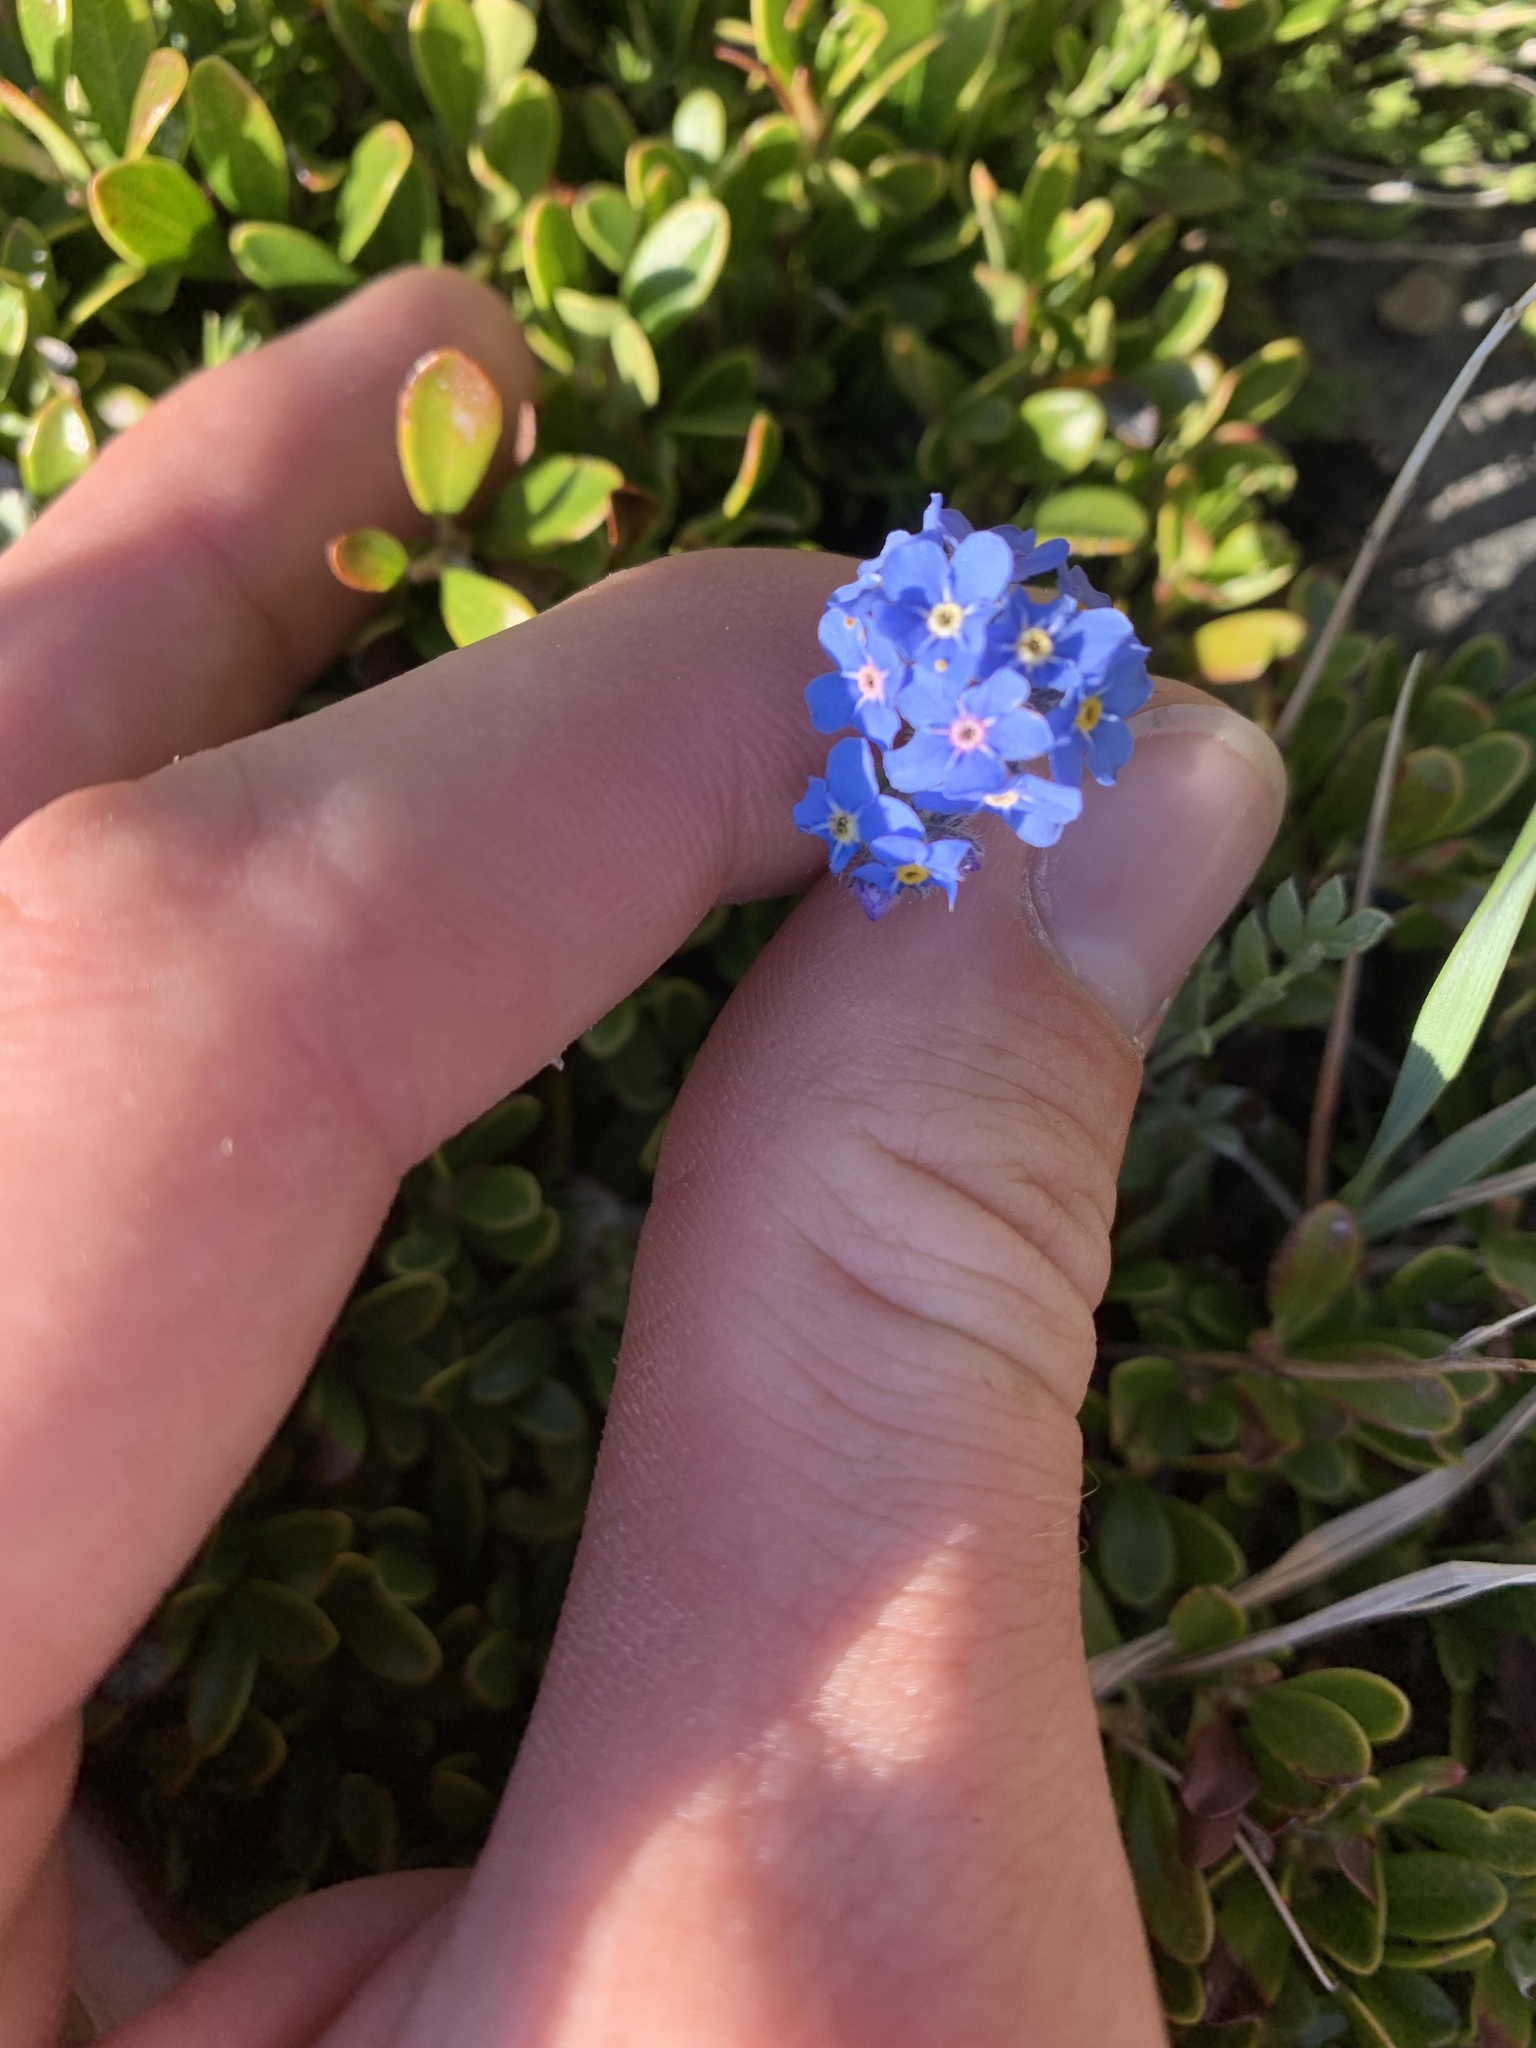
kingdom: Plantae
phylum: Tracheophyta
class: Magnoliopsida
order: Boraginales
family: Boraginaceae
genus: Myosotis
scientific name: Myosotis asiatica
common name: Asian forget-me-not
